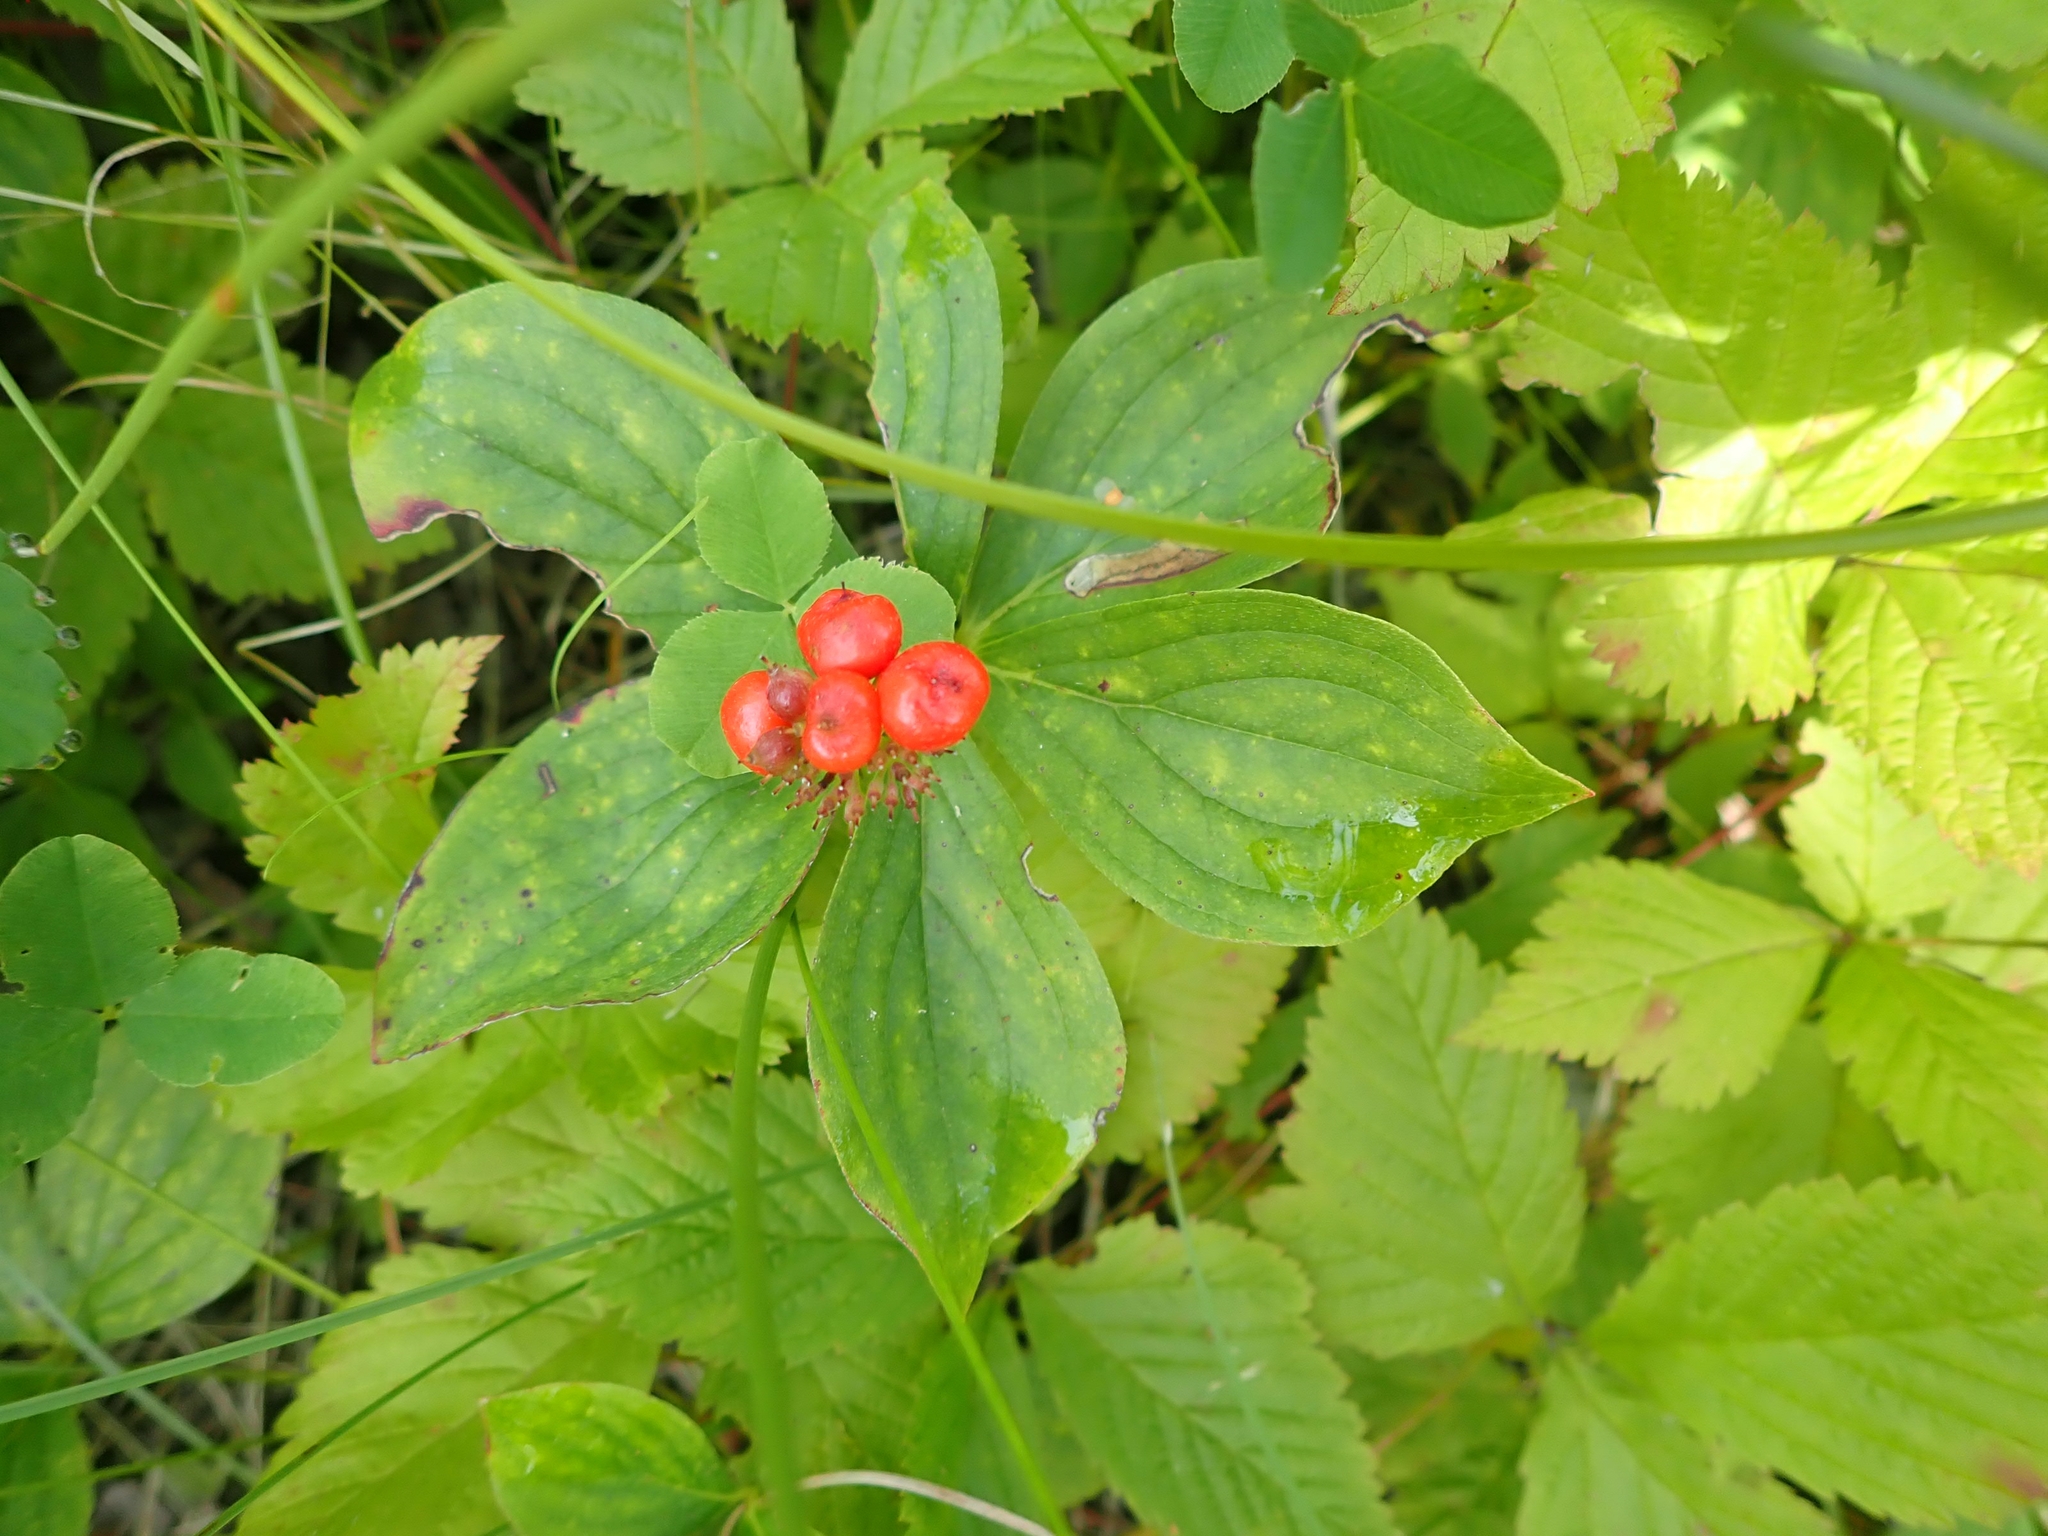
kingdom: Plantae
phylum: Tracheophyta
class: Magnoliopsida
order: Cornales
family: Cornaceae
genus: Cornus
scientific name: Cornus canadensis
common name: Creeping dogwood
